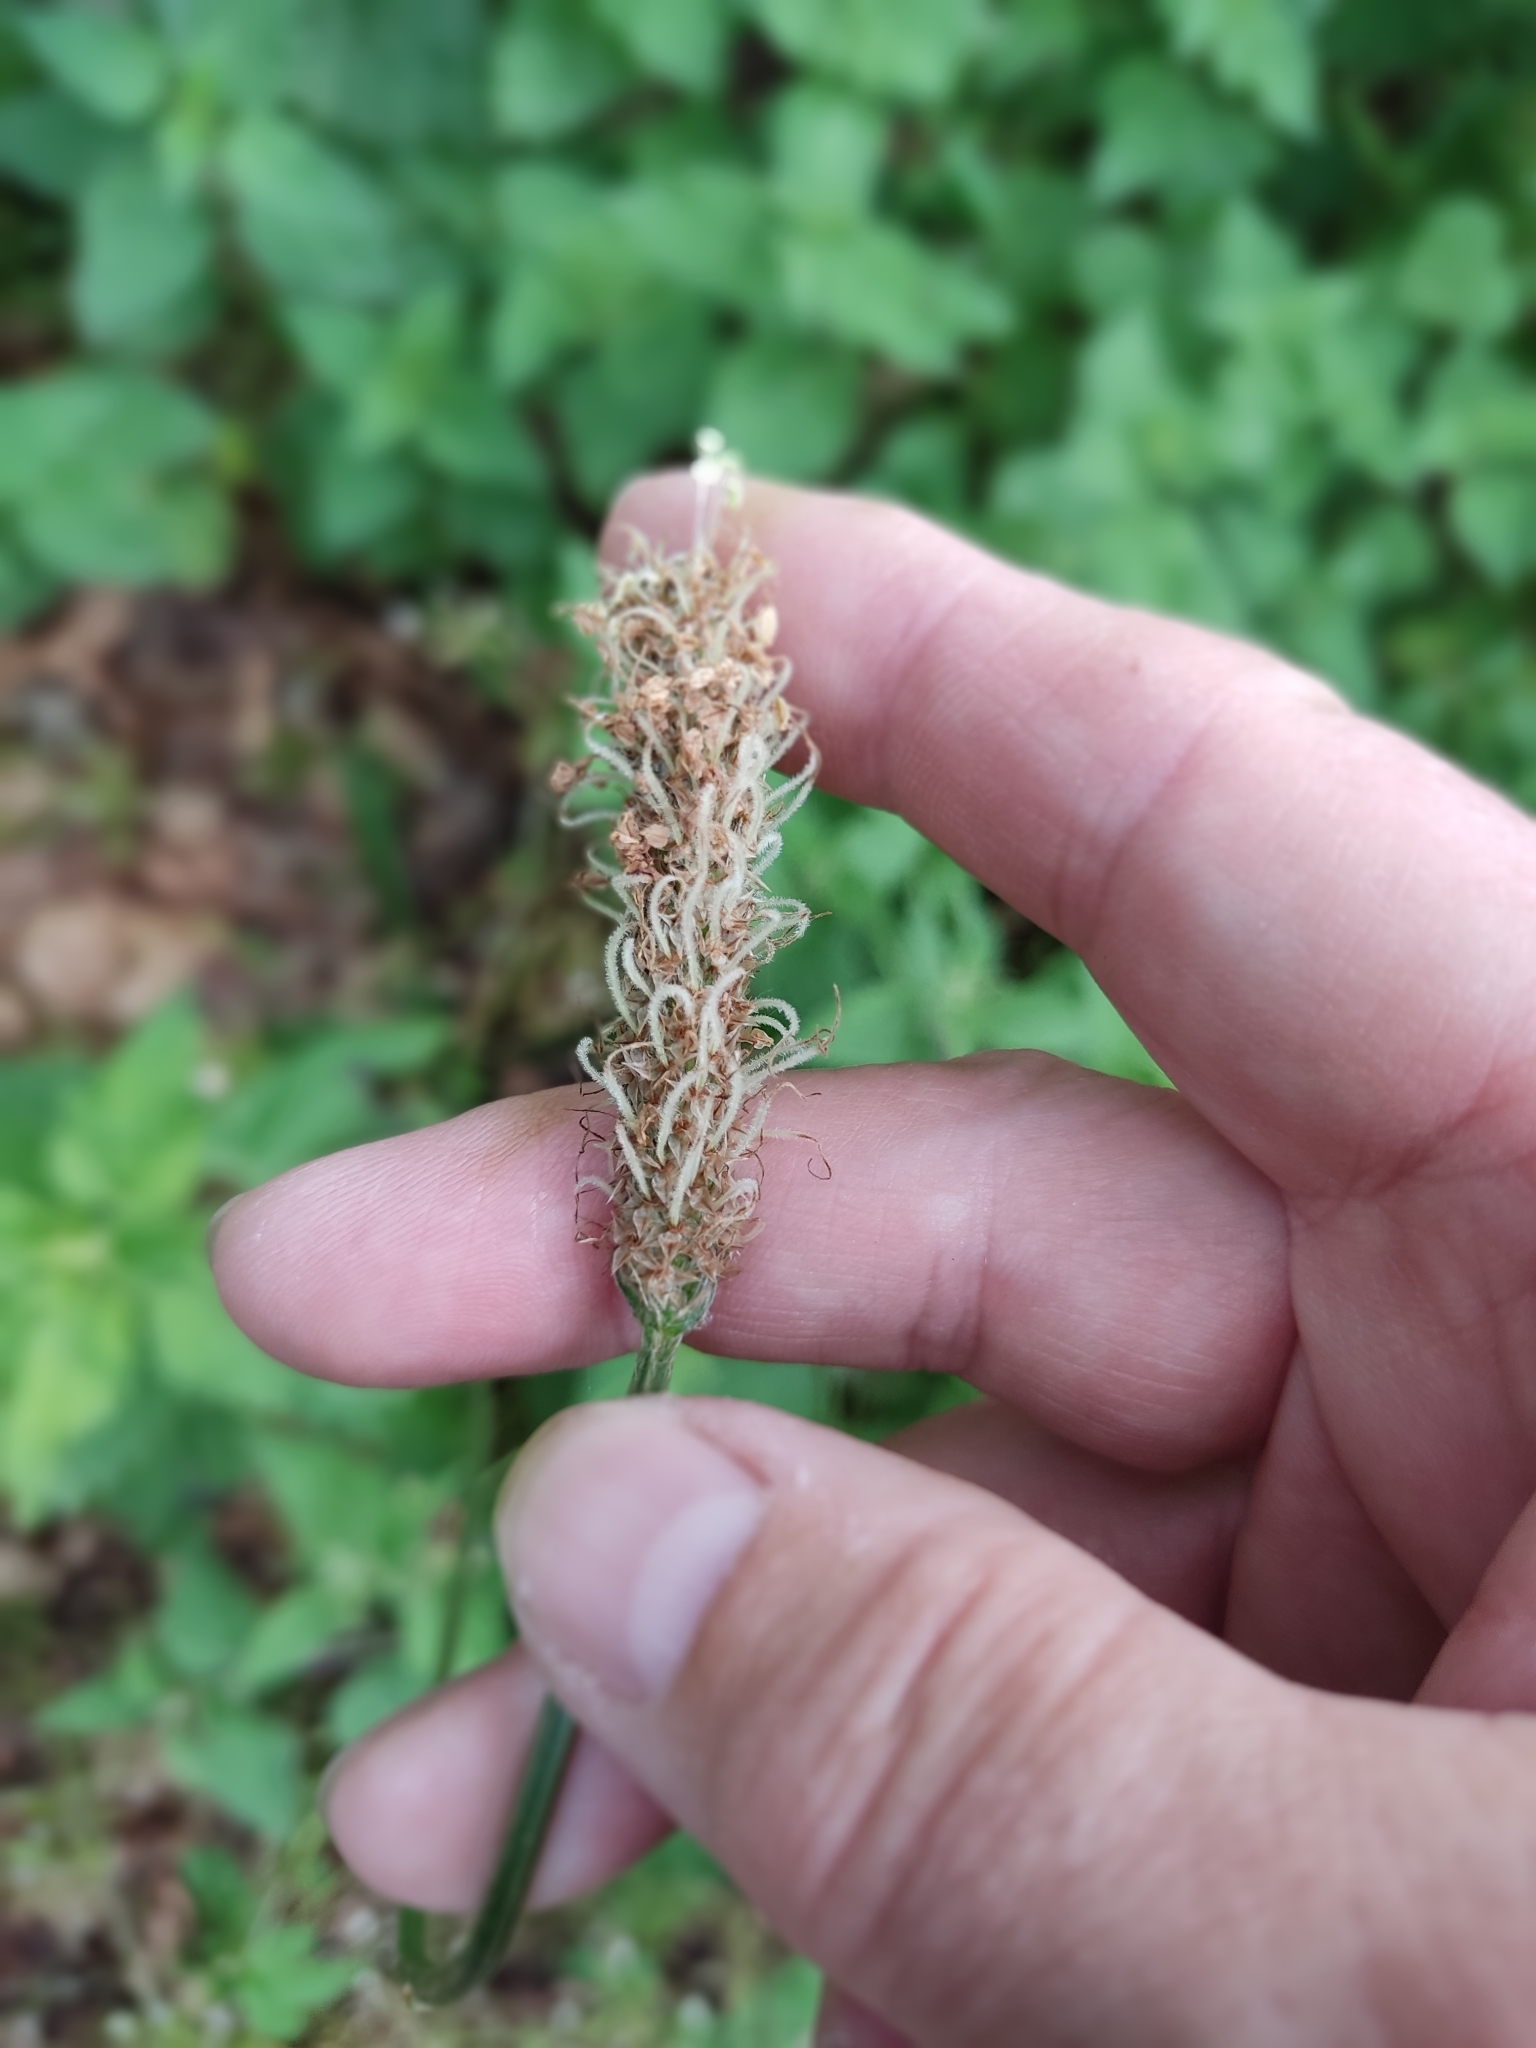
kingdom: Plantae
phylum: Tracheophyta
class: Magnoliopsida
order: Lamiales
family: Plantaginaceae
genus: Plantago
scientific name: Plantago lanceolata
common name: Ribwort plantain
